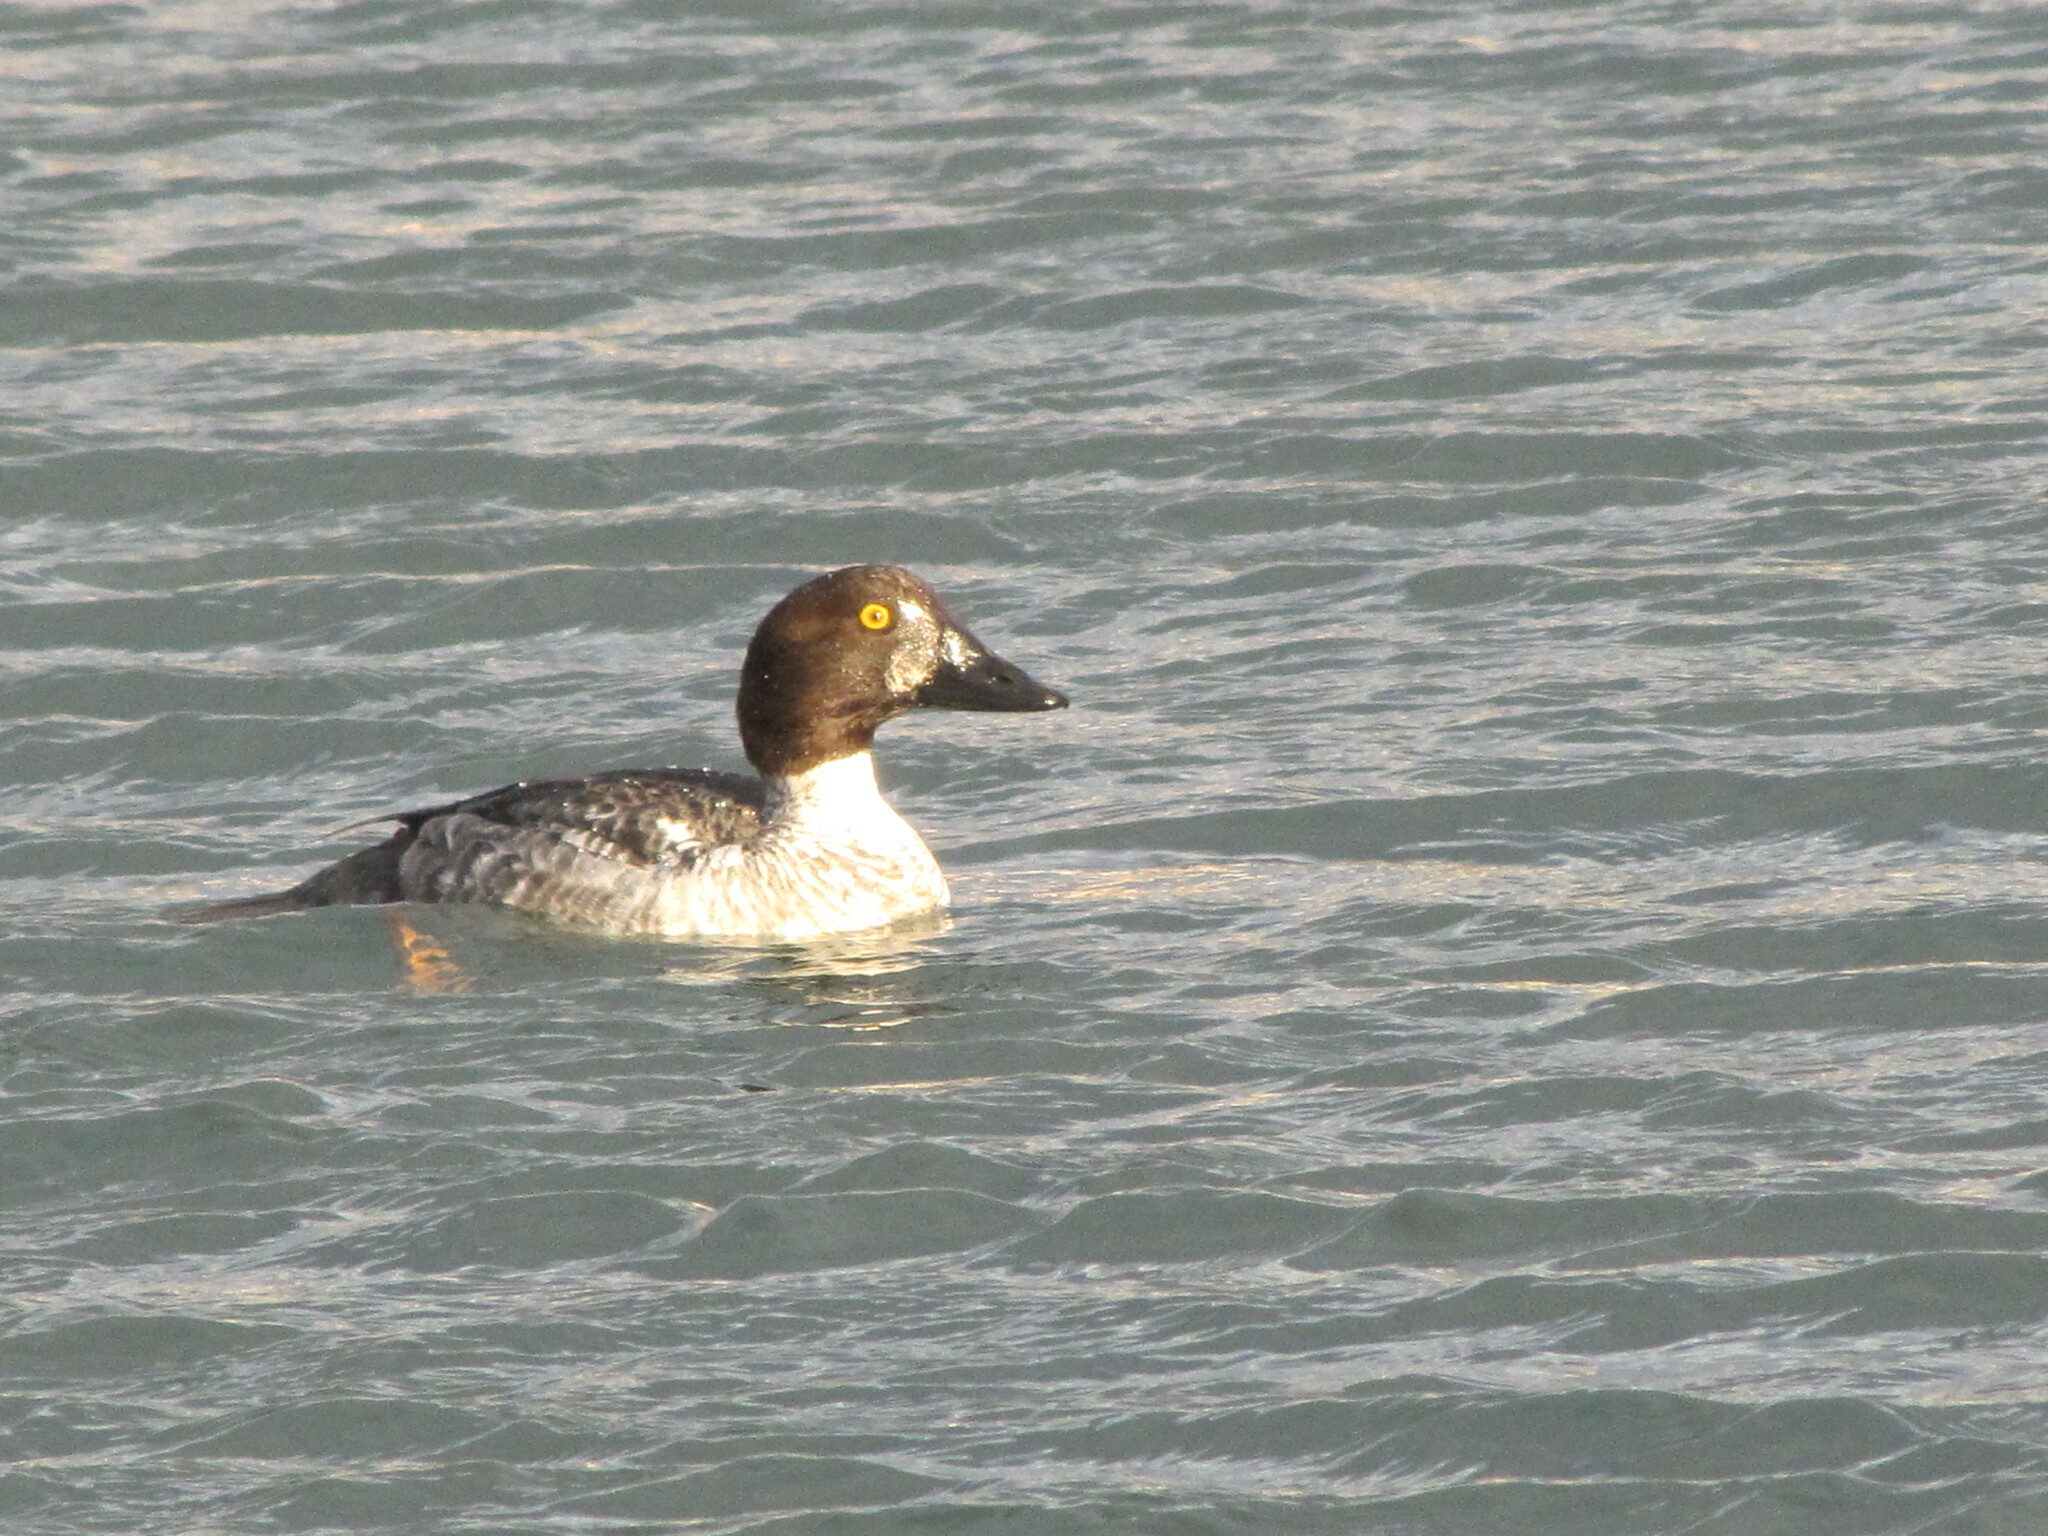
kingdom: Animalia
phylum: Chordata
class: Aves
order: Anseriformes
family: Anatidae
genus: Bucephala
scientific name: Bucephala clangula
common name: Common goldeneye
